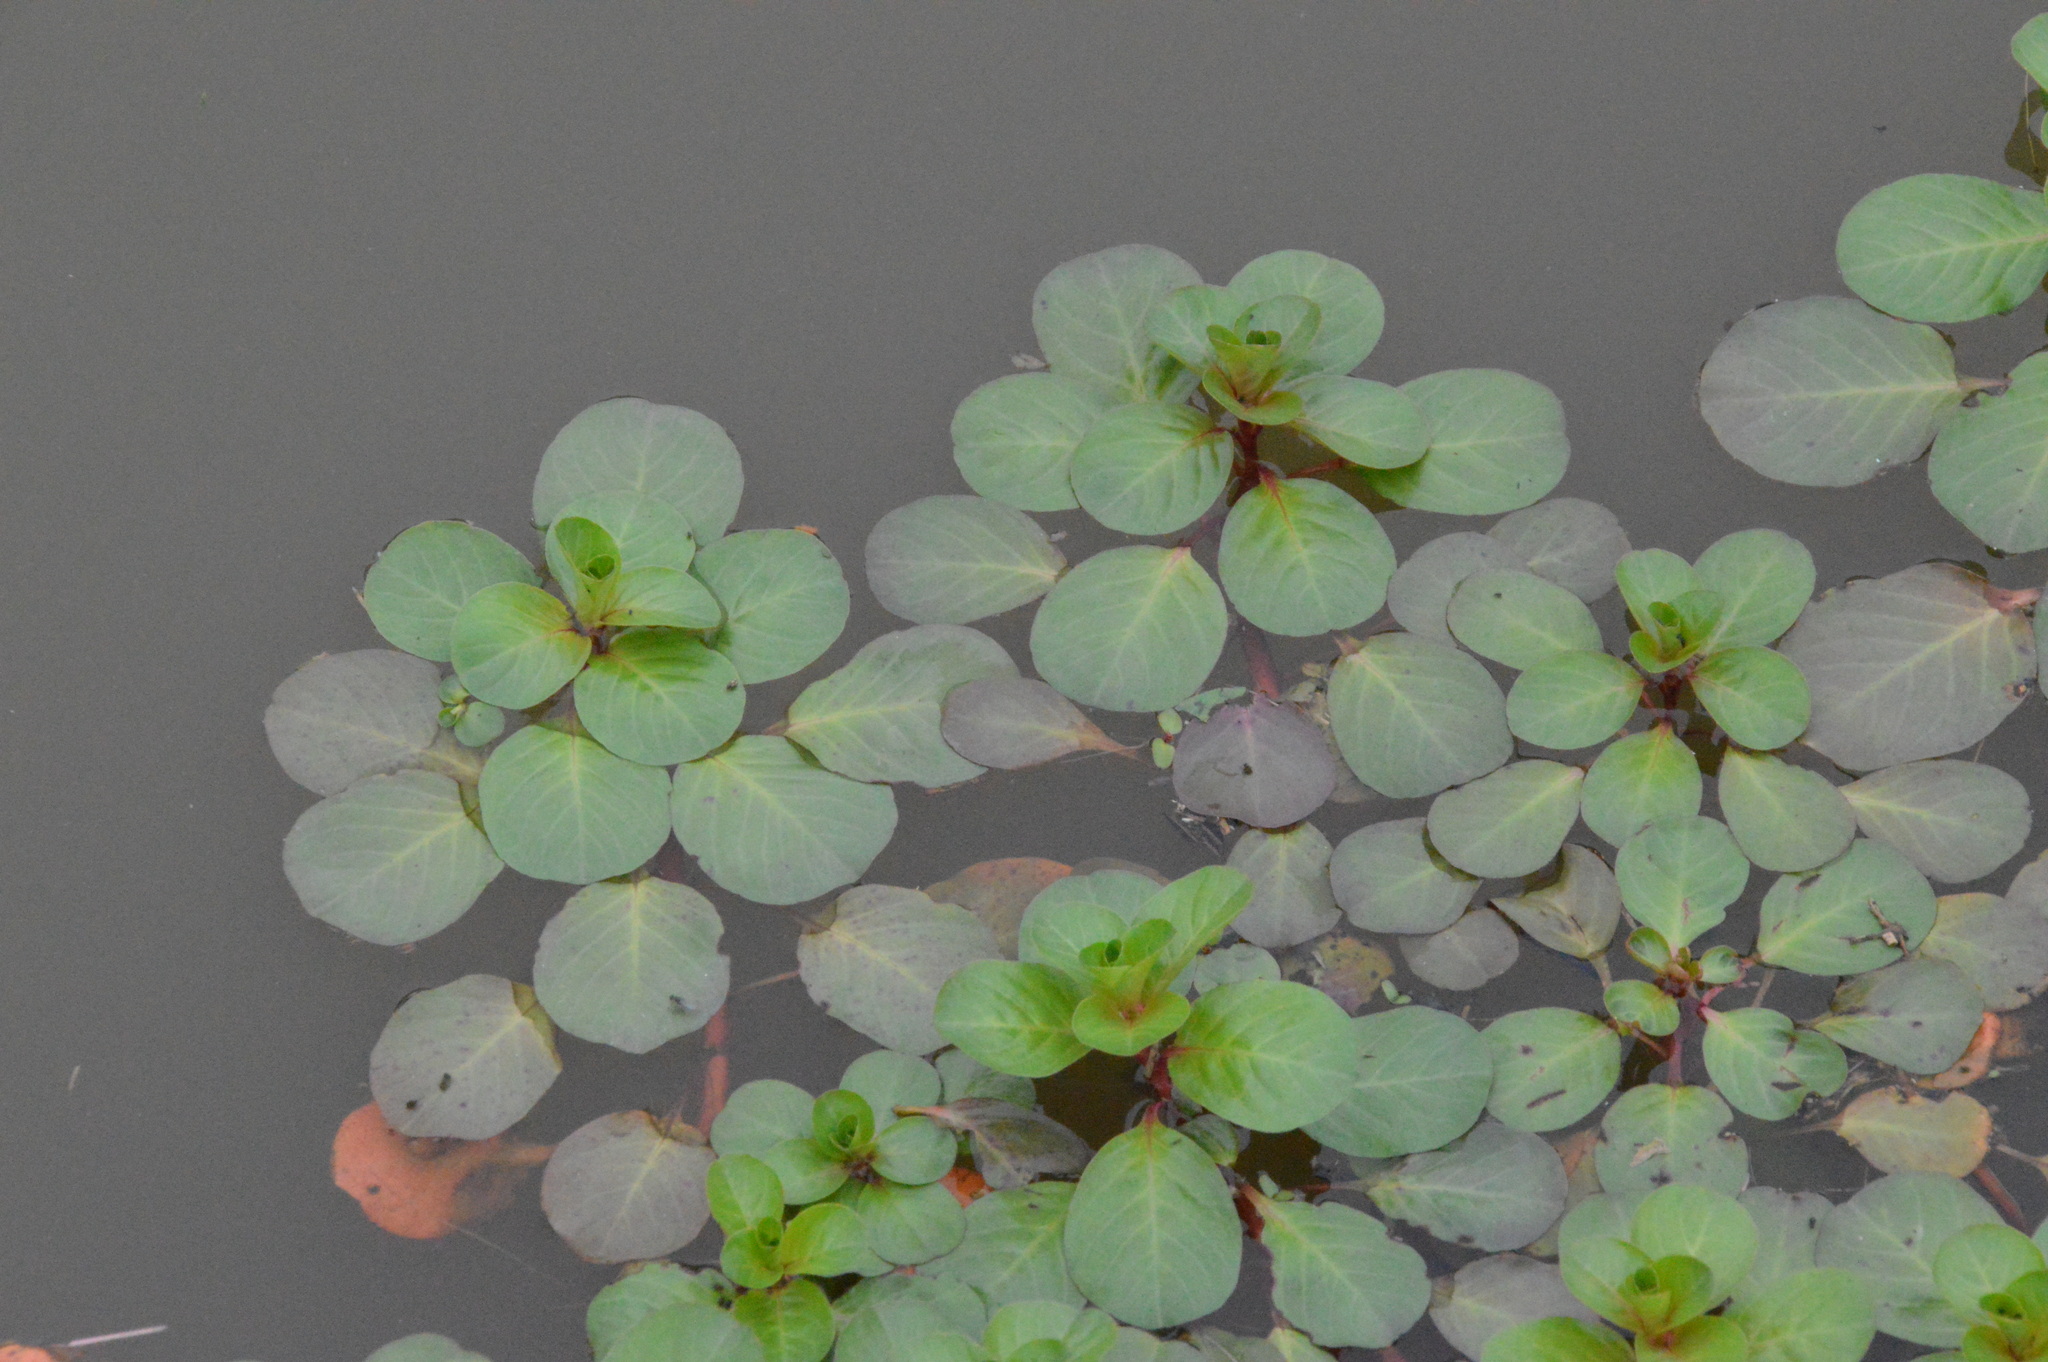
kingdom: Plantae
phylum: Tracheophyta
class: Magnoliopsida
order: Myrtales
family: Onagraceae
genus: Ludwigia
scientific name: Ludwigia peploides
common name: Floating primrose-willow
